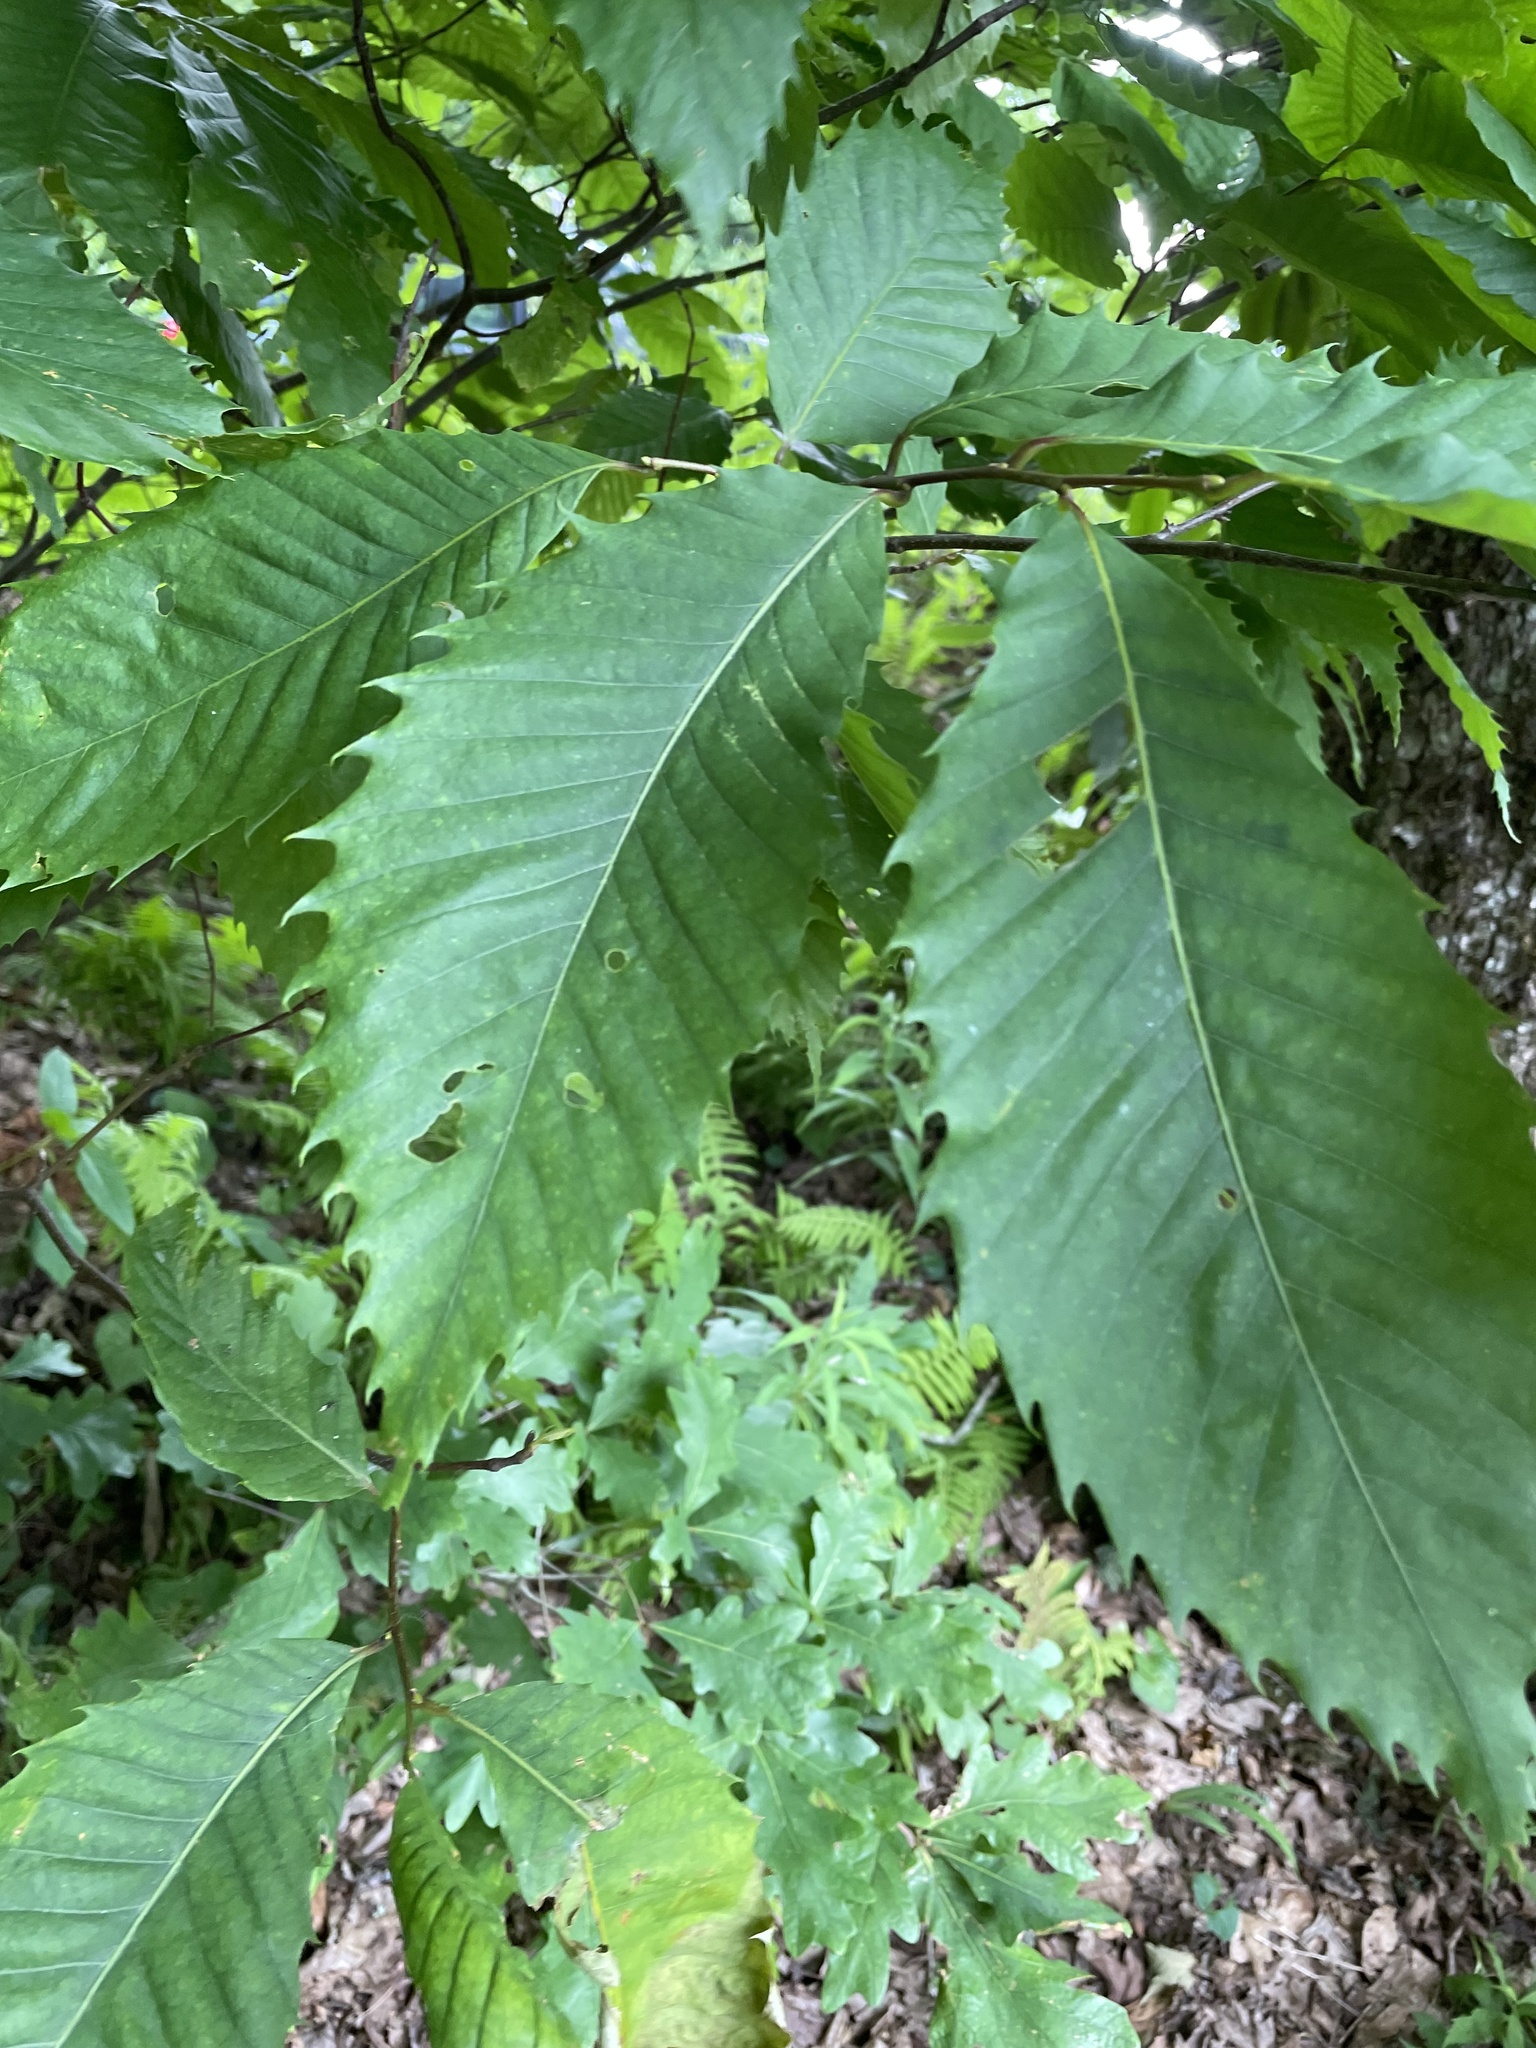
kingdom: Plantae
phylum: Tracheophyta
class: Magnoliopsida
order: Fagales
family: Fagaceae
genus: Castanea
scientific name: Castanea dentata
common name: American chestnut
